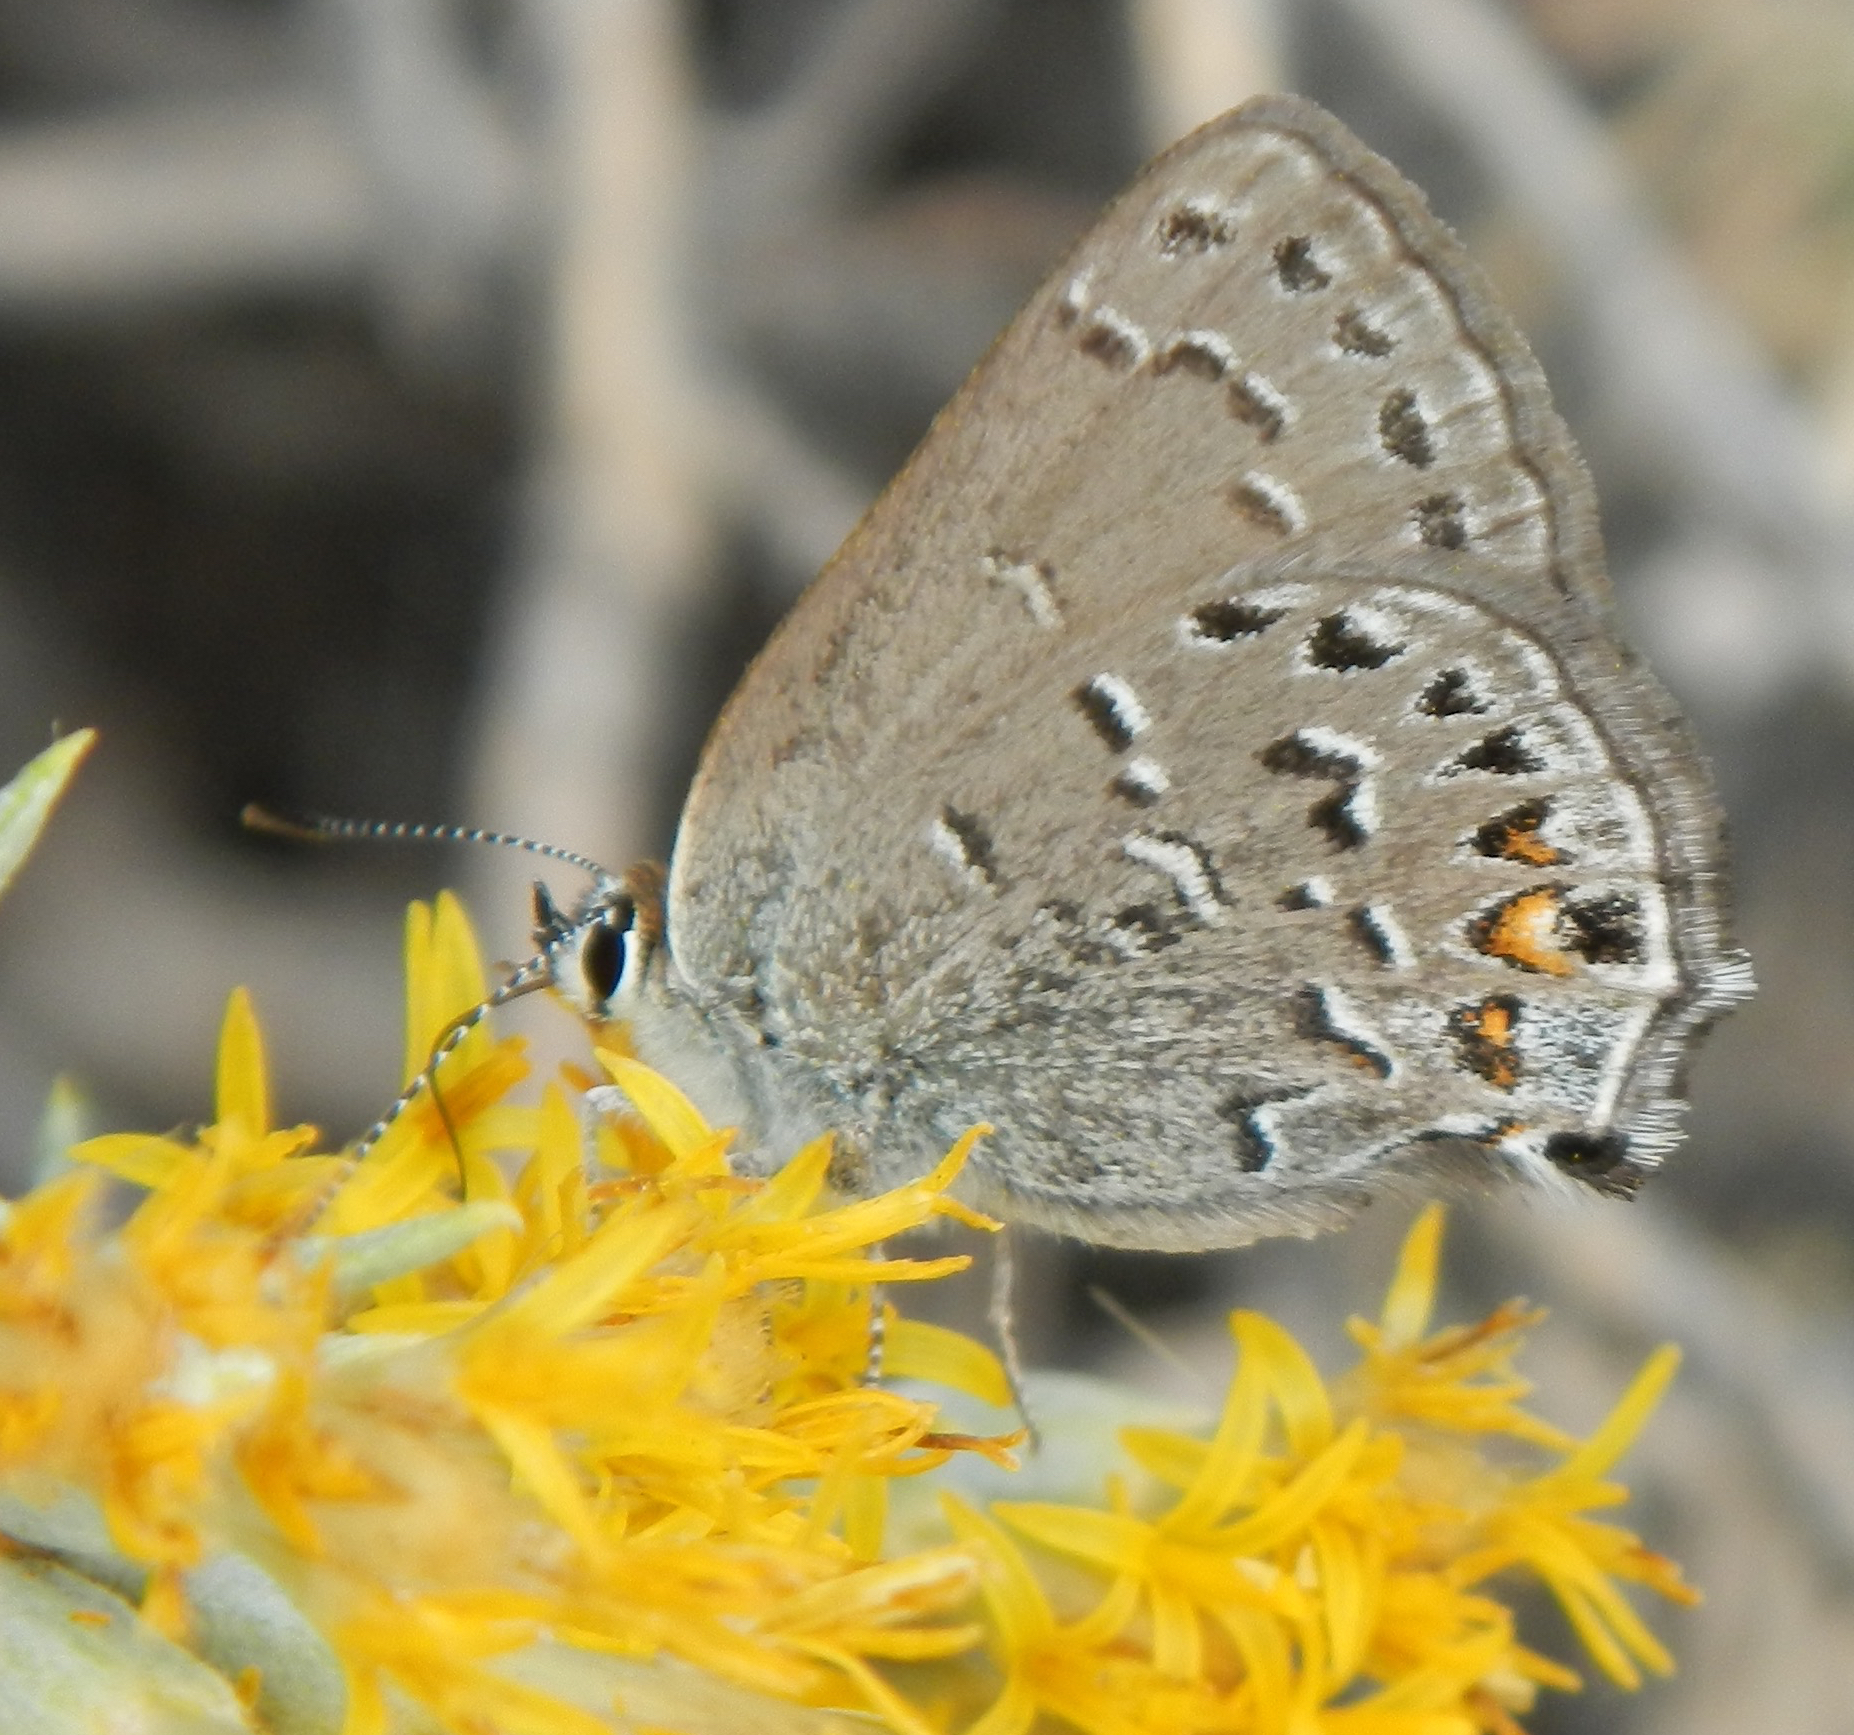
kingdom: Animalia
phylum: Arthropoda
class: Insecta
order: Lepidoptera
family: Lycaenidae
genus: Satyrium
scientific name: Satyrium behrii
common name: Behr's hairstreak
